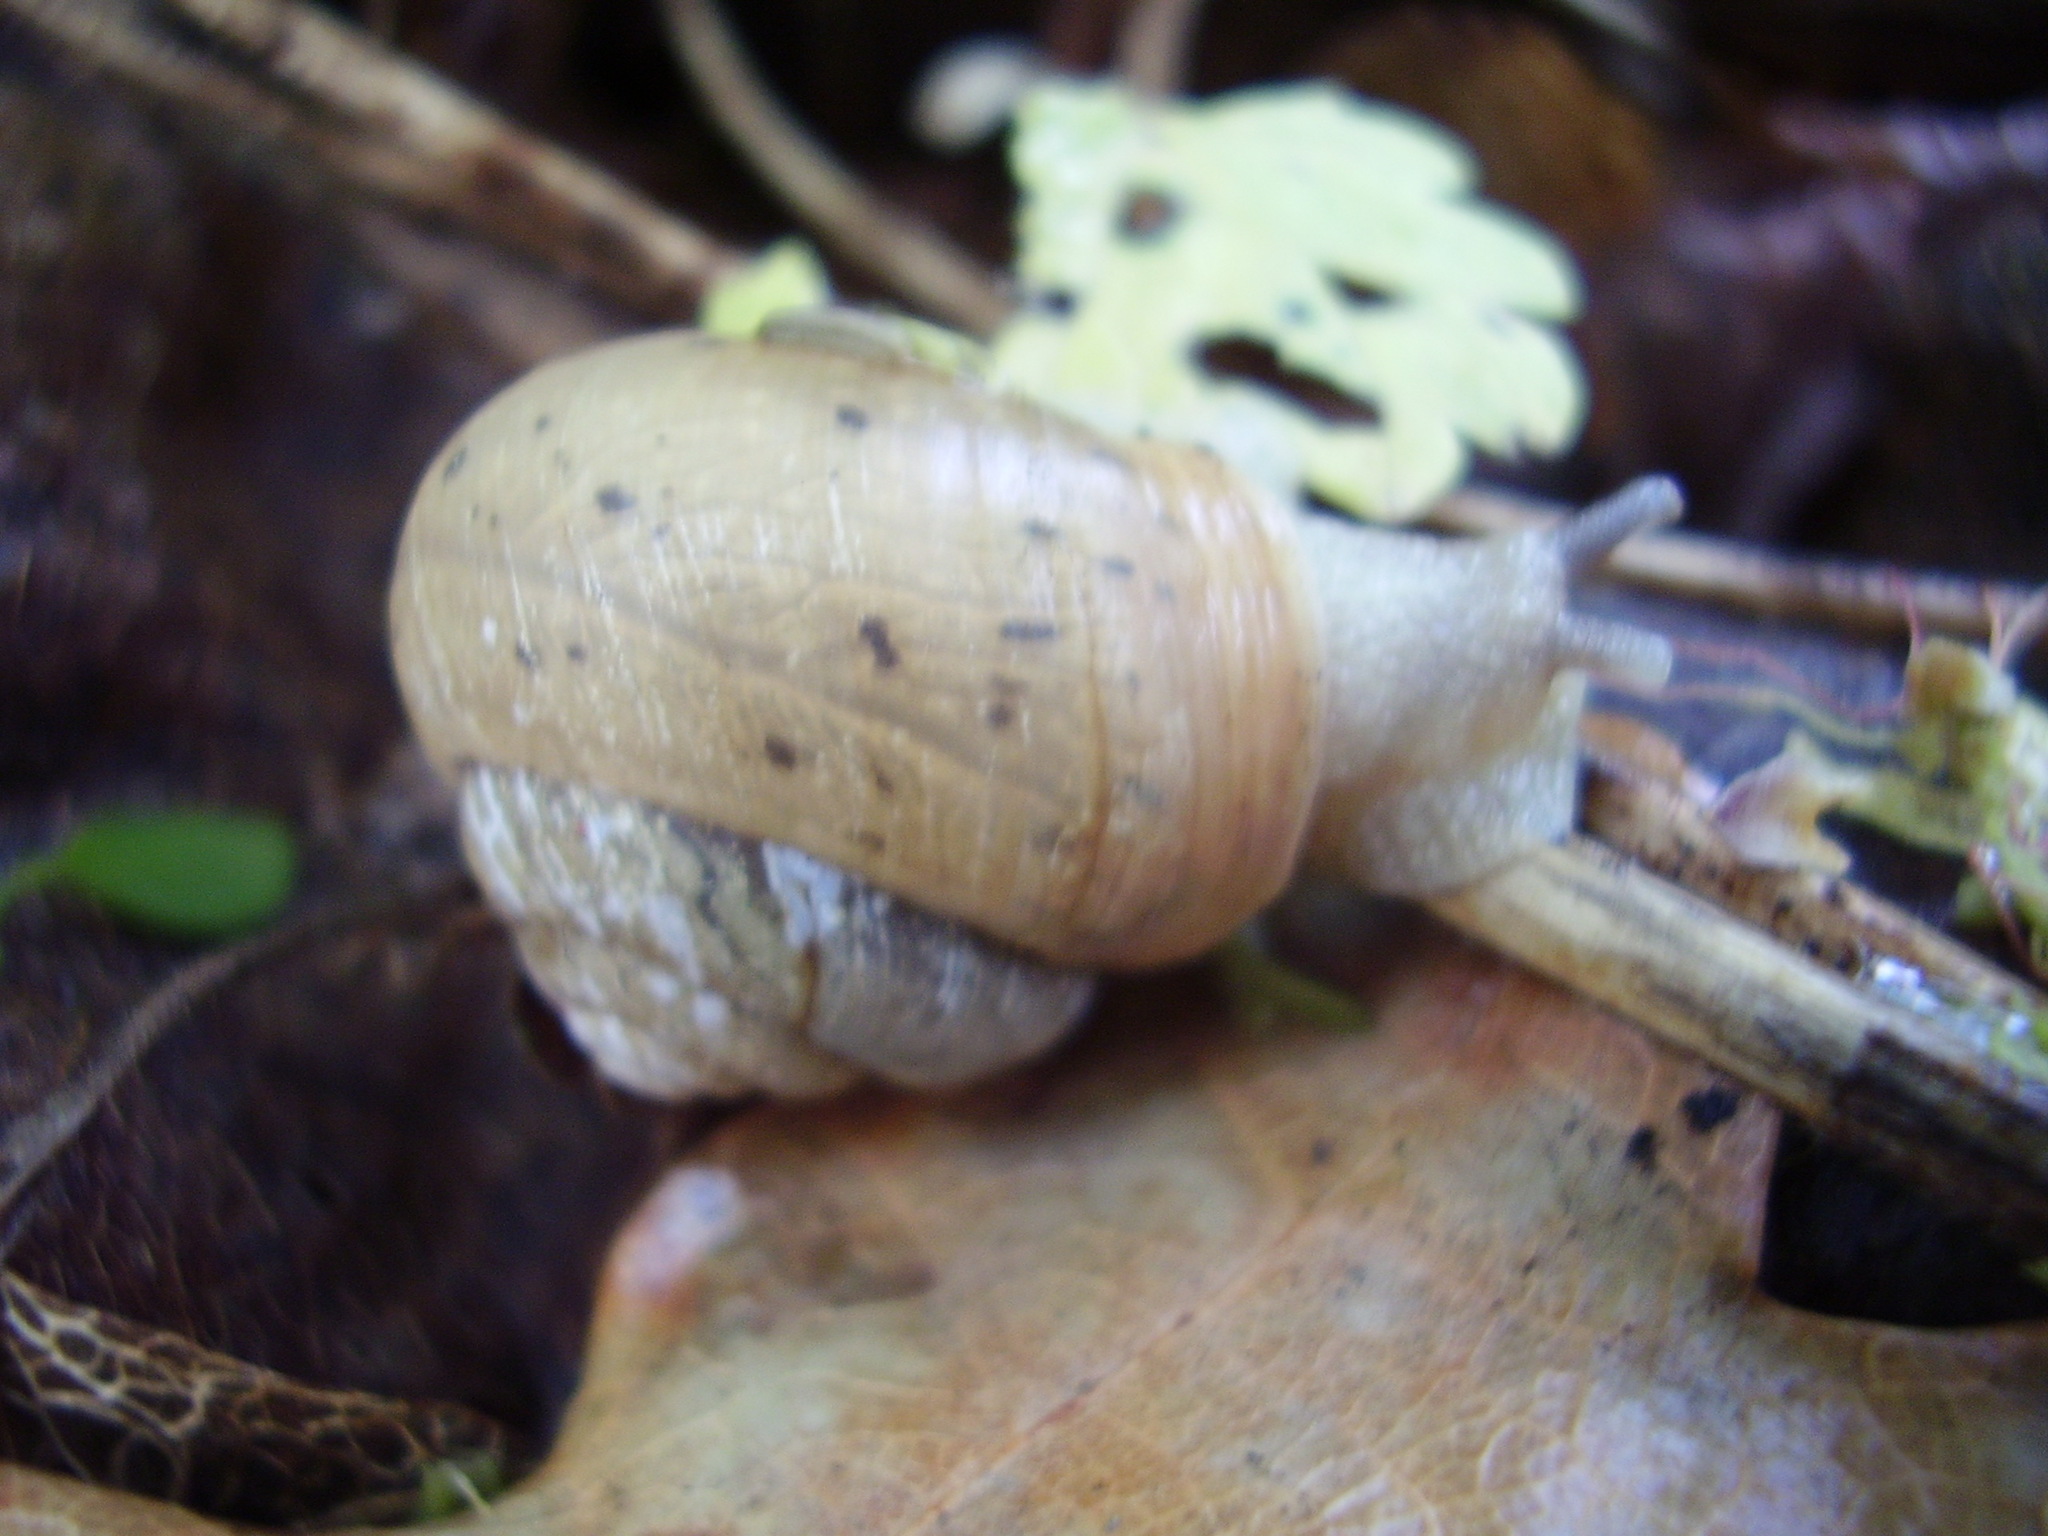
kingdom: Animalia
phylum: Mollusca
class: Gastropoda
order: Stylommatophora
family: Camaenidae
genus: Fruticicola
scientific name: Fruticicola fruticum
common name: Bush snail
